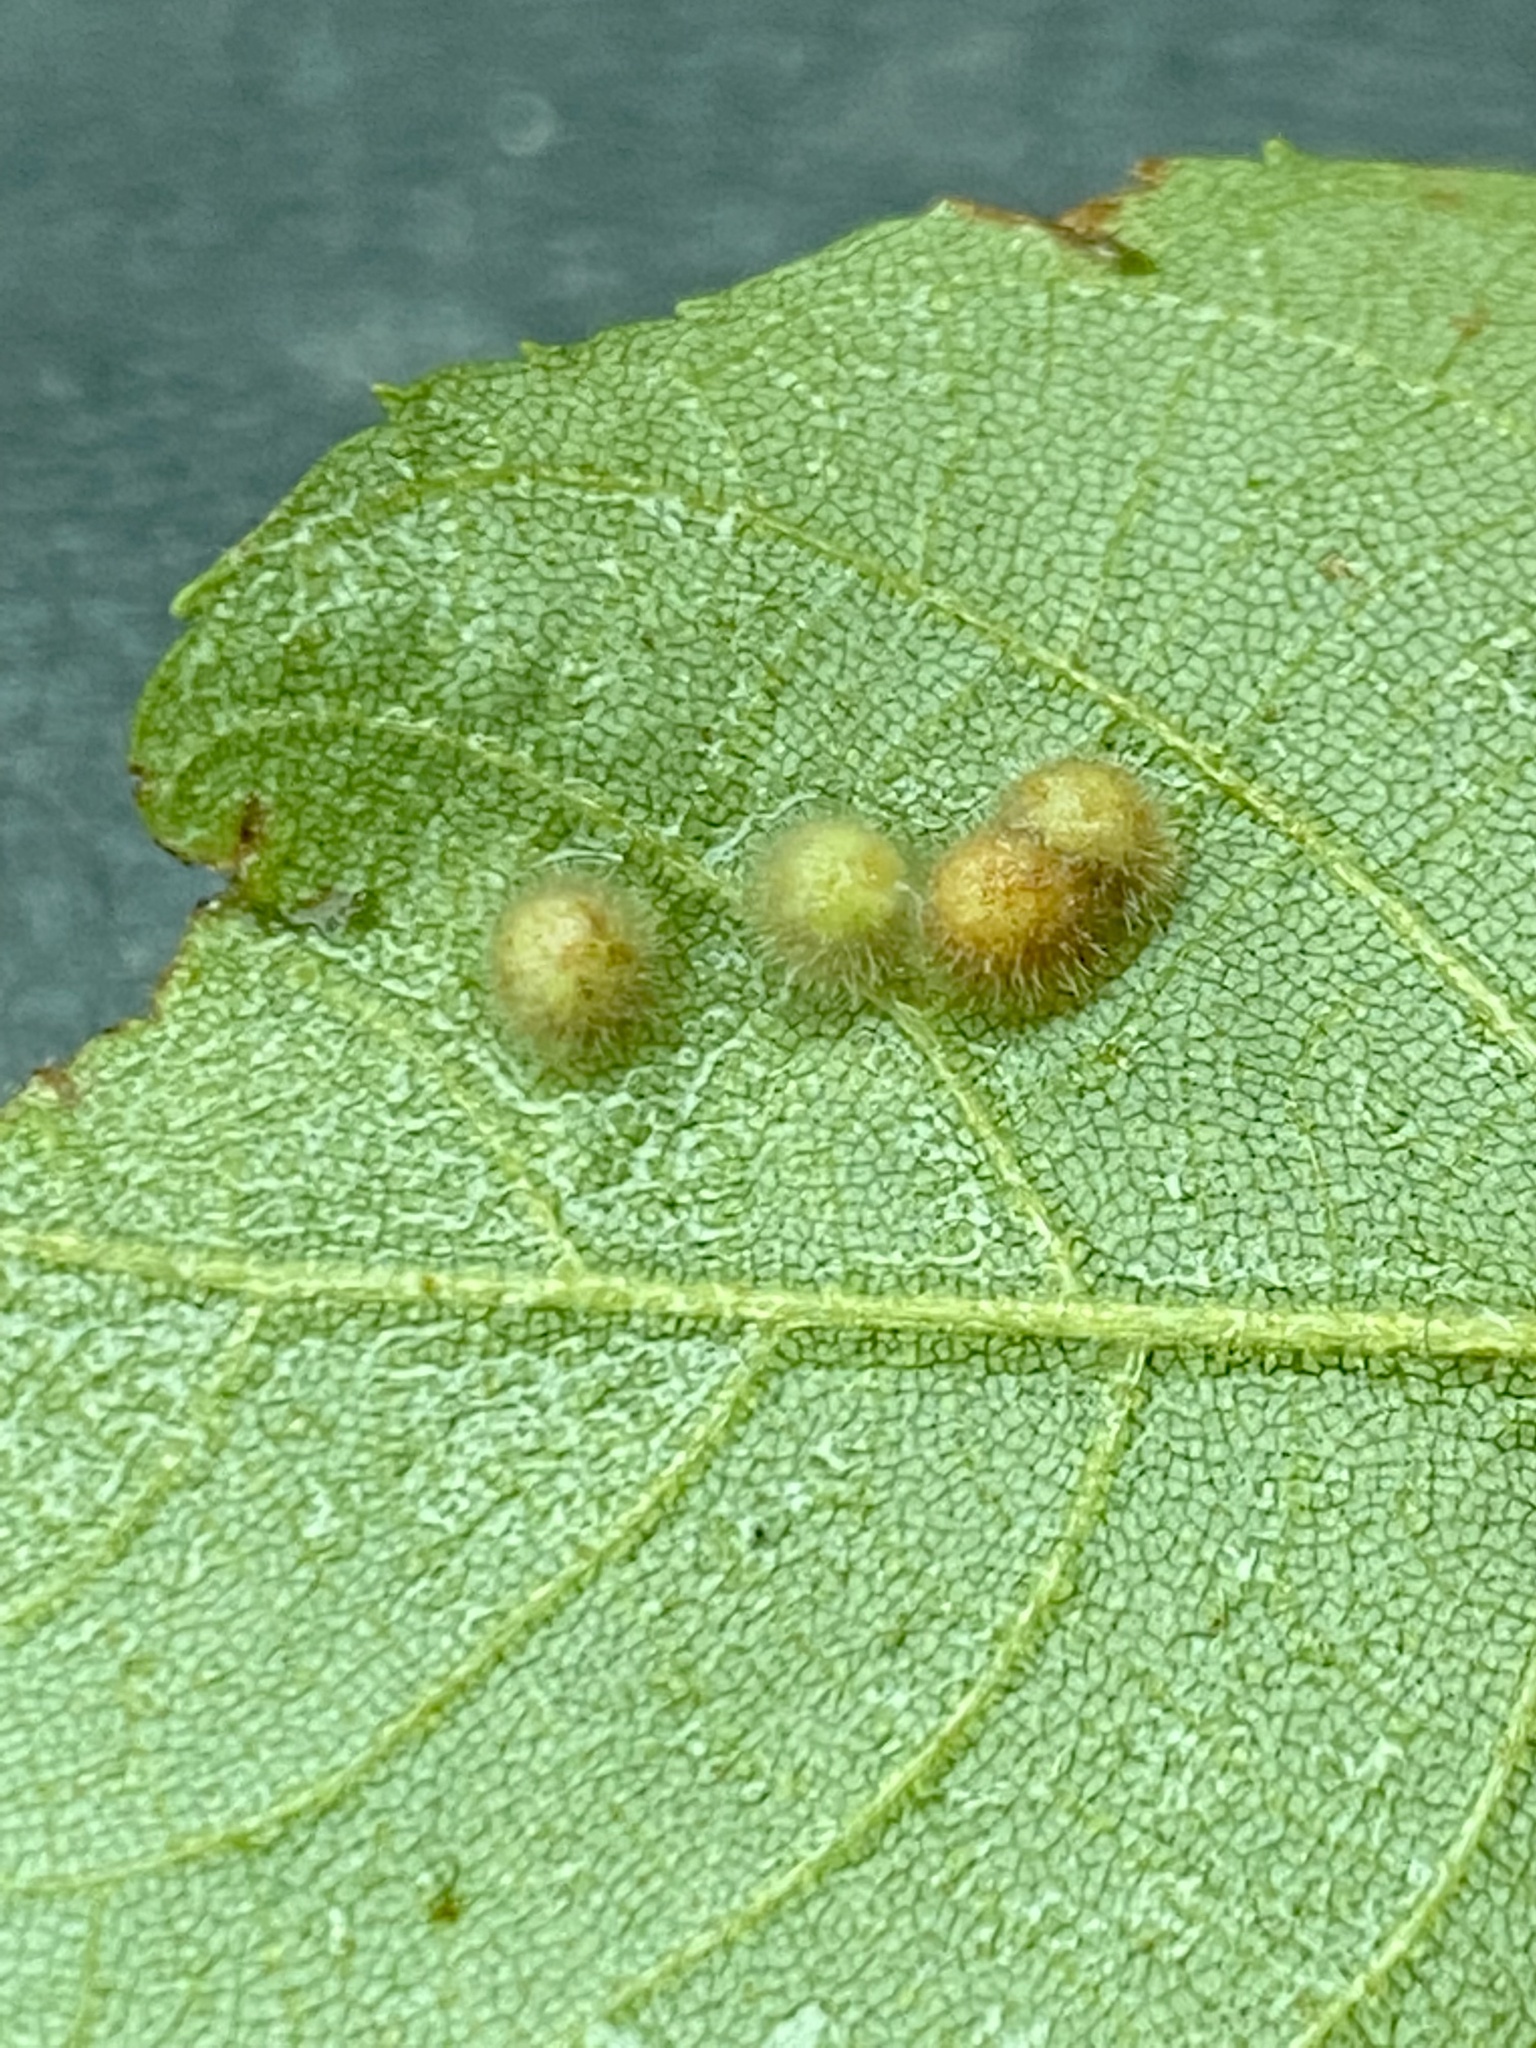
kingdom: Animalia
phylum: Arthropoda
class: Insecta
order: Diptera
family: Cecidomyiidae
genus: Caryomyia
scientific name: Caryomyia purpurea
